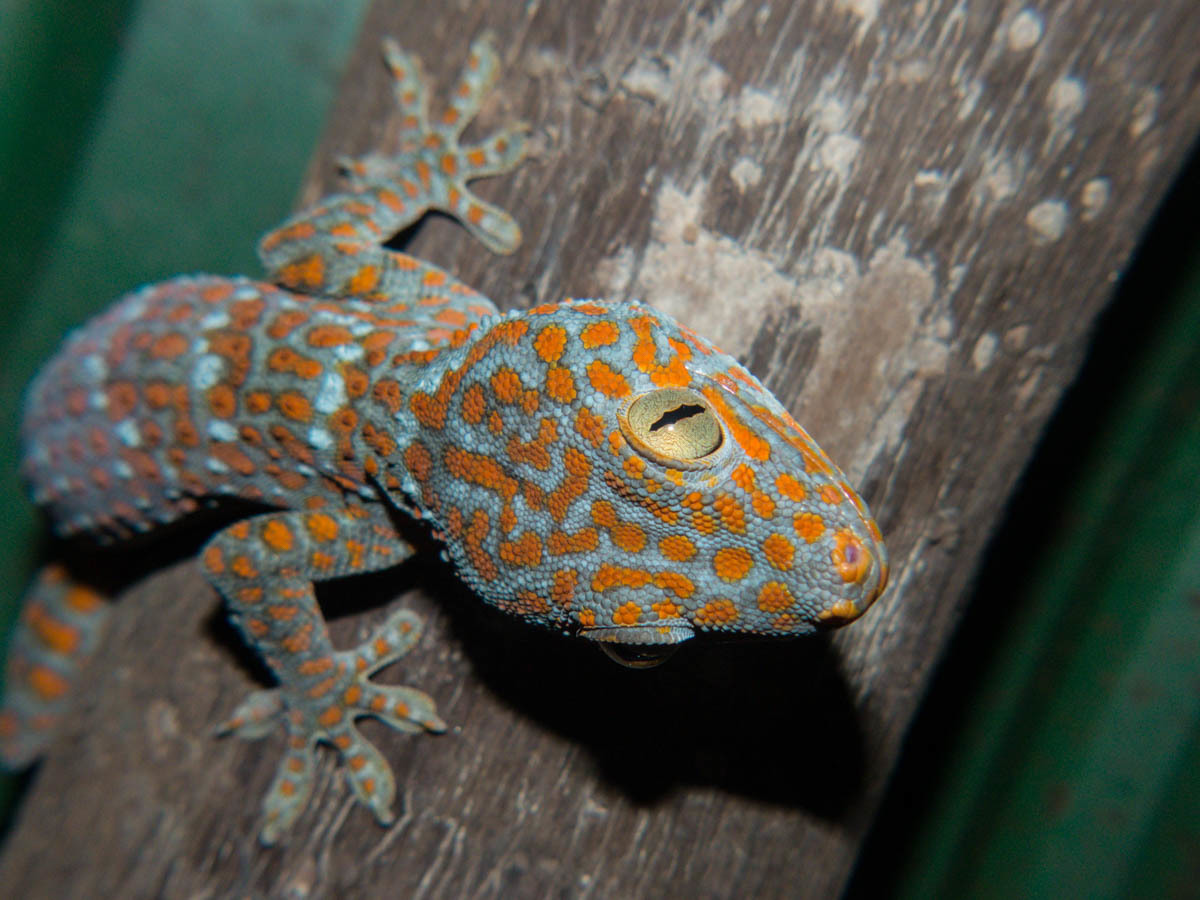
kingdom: Animalia
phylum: Chordata
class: Squamata
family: Gekkonidae
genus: Gekko
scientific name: Gekko gecko
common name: Tokay gecko
